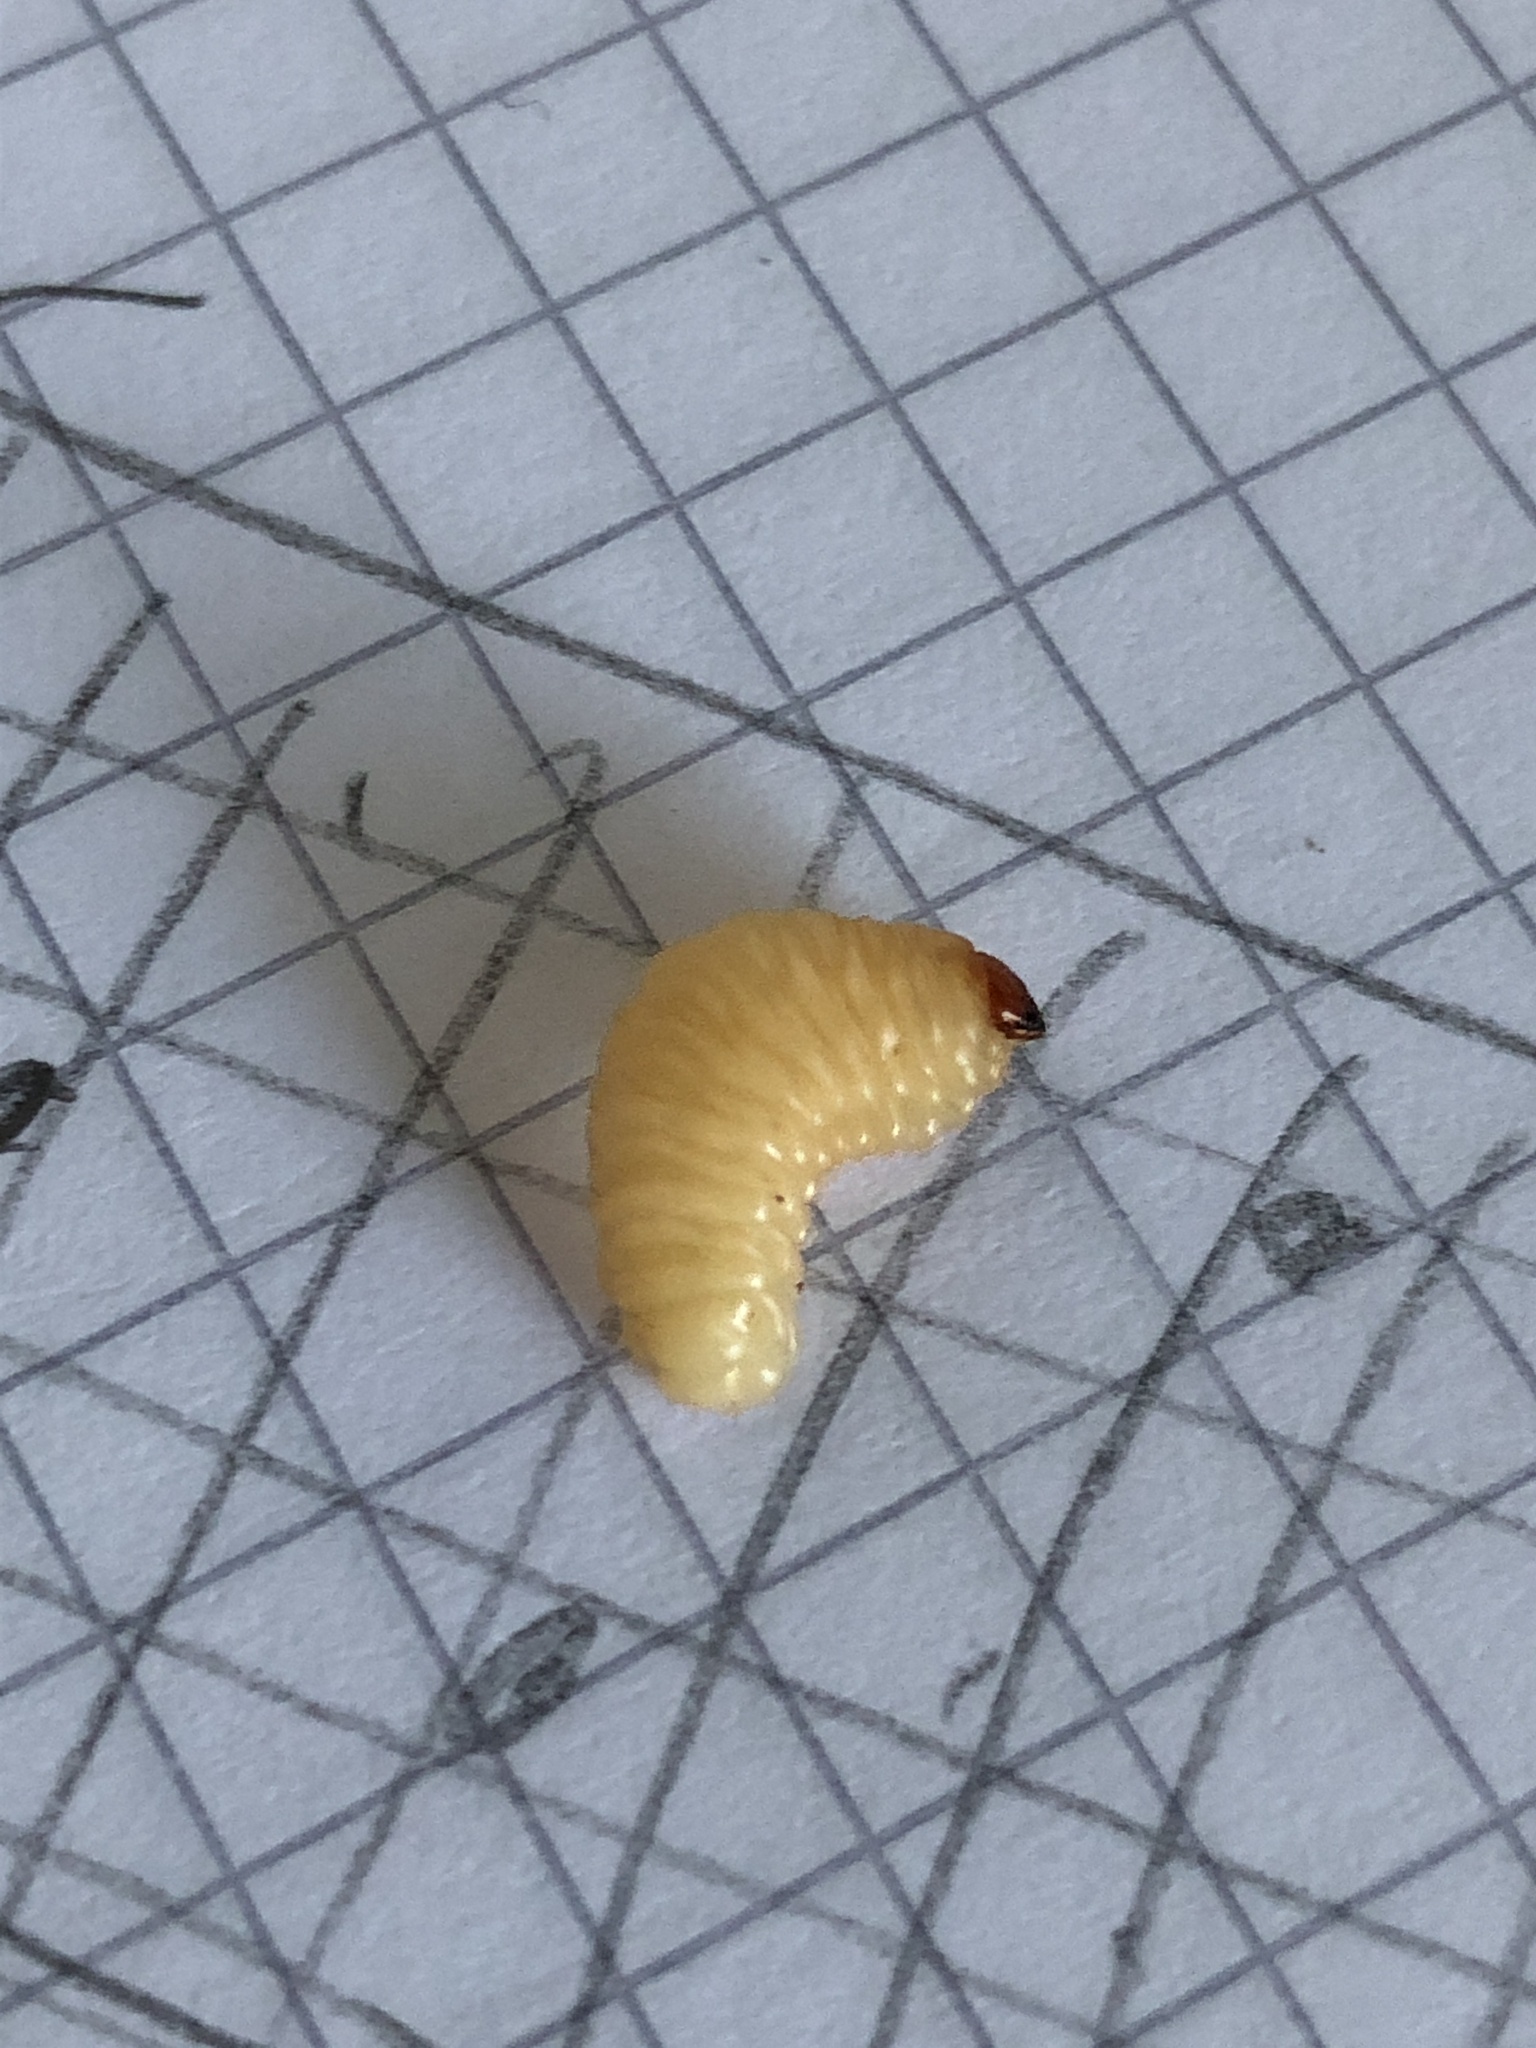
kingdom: Animalia
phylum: Arthropoda
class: Insecta
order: Coleoptera
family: Curculionidae
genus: Curculio
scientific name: Curculio elephas
